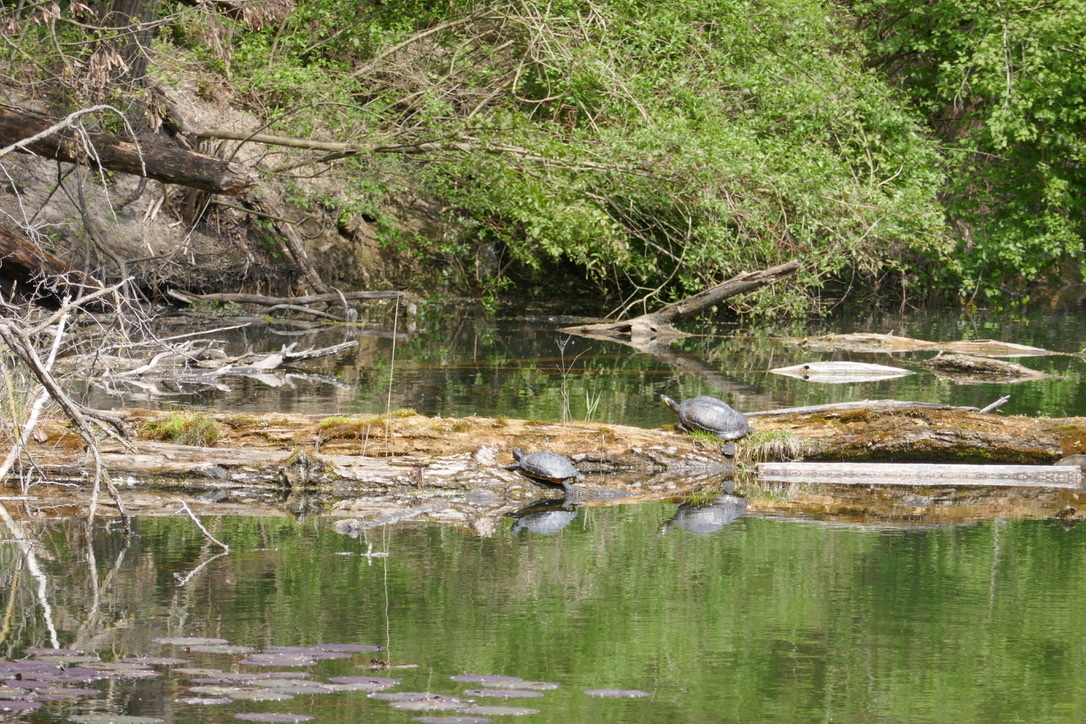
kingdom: Animalia
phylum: Chordata
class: Testudines
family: Emydidae
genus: Trachemys
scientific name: Trachemys scripta
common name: Slider
